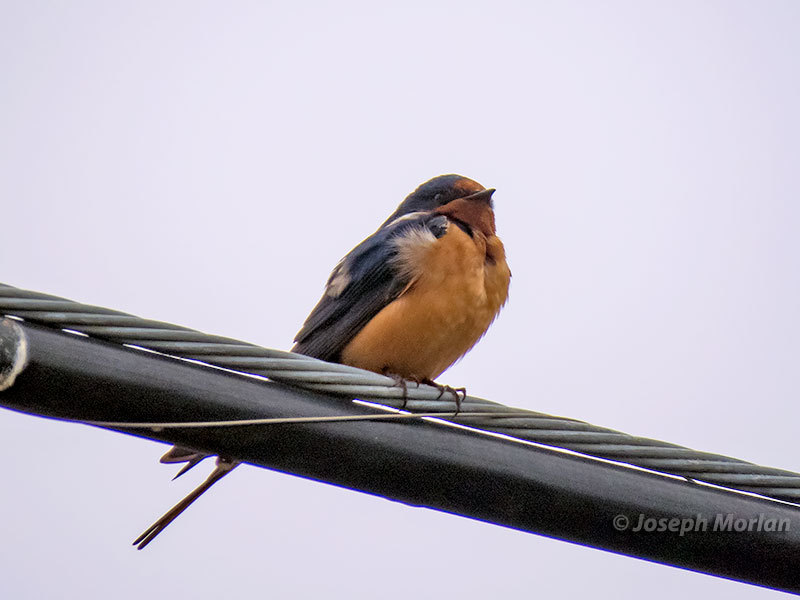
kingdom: Animalia
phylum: Chordata
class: Aves
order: Passeriformes
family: Hirundinidae
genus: Hirundo
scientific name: Hirundo rustica
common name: Barn swallow
